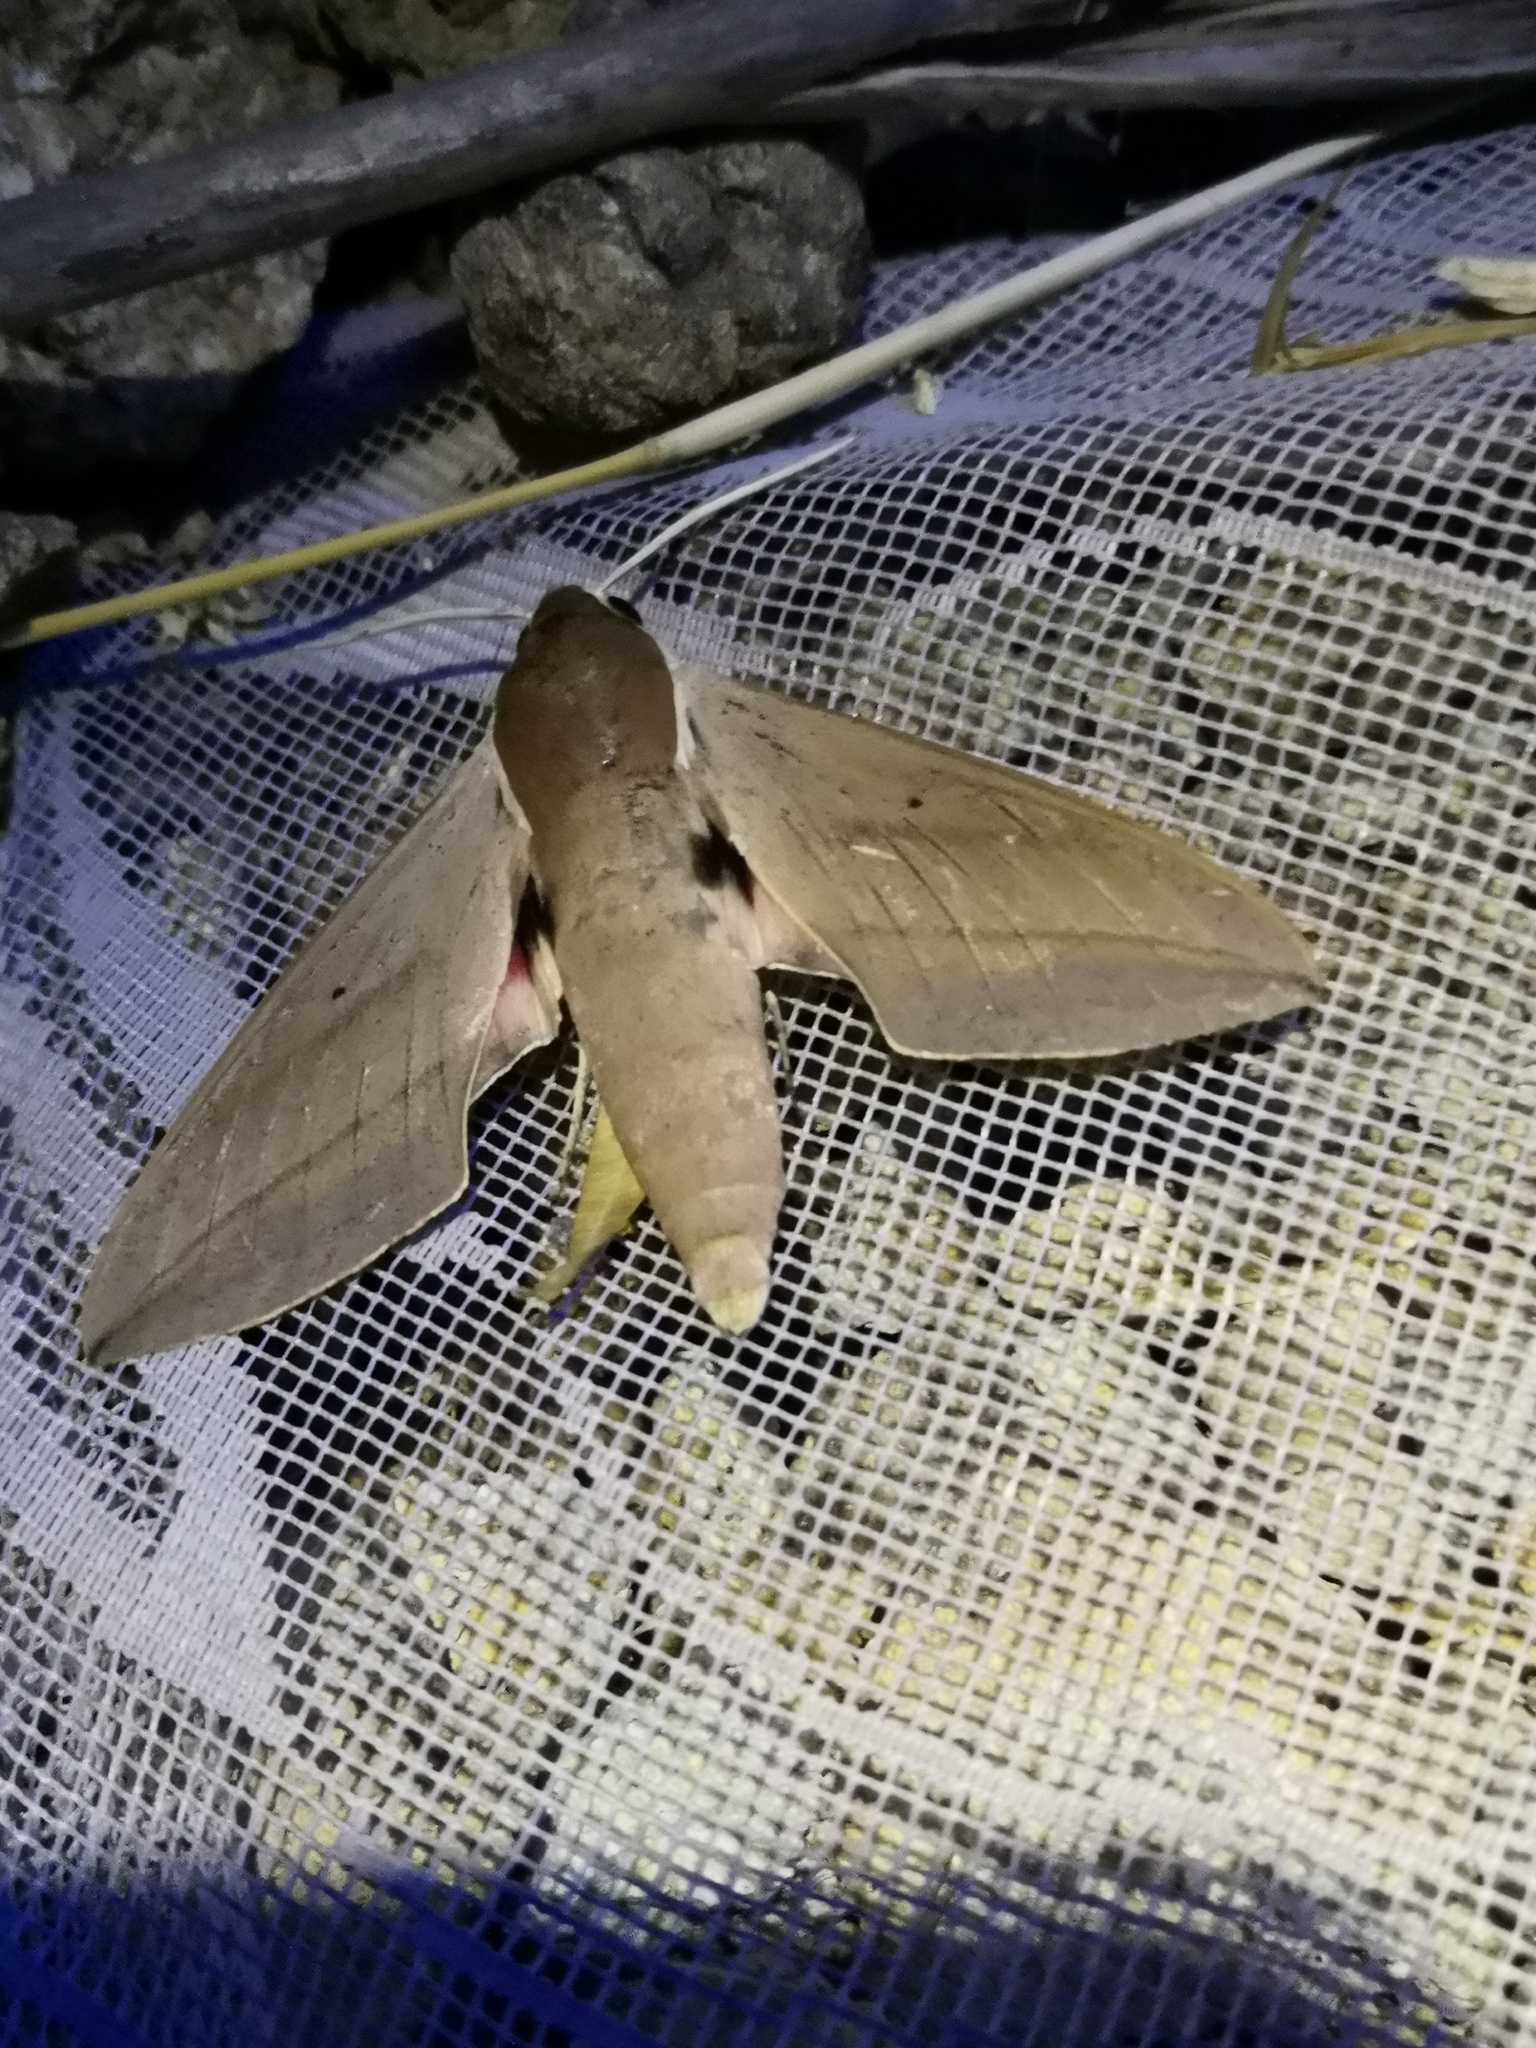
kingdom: Animalia
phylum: Arthropoda
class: Insecta
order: Lepidoptera
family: Sphingidae
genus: Theretra
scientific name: Theretra alecto
